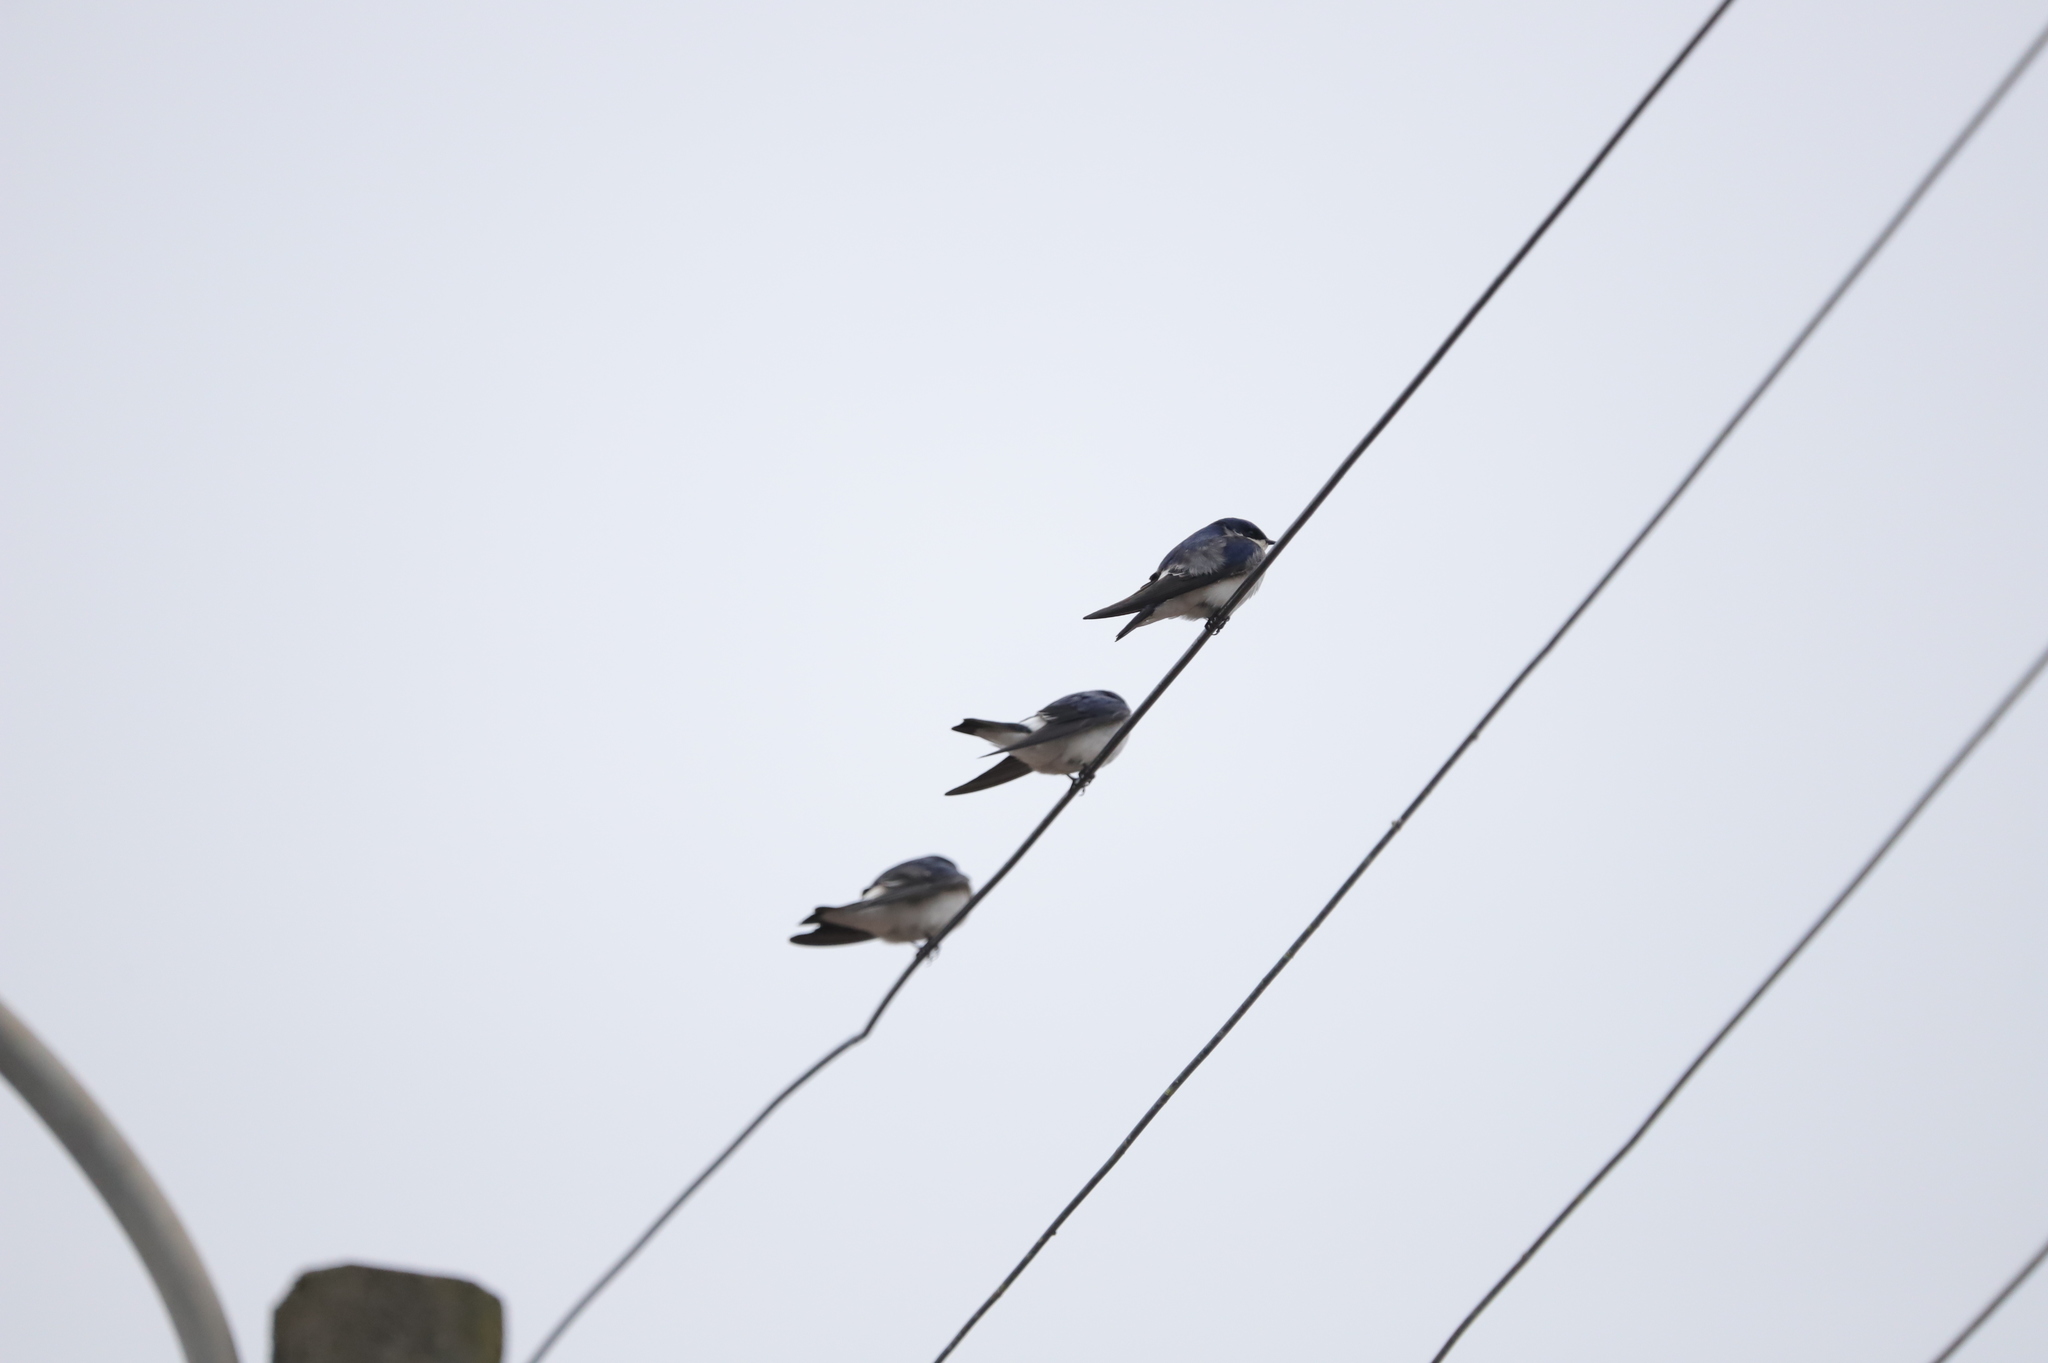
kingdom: Animalia
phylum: Chordata
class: Aves
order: Passeriformes
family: Hirundinidae
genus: Tachycineta
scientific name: Tachycineta leucopyga
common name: Chilean swallow
